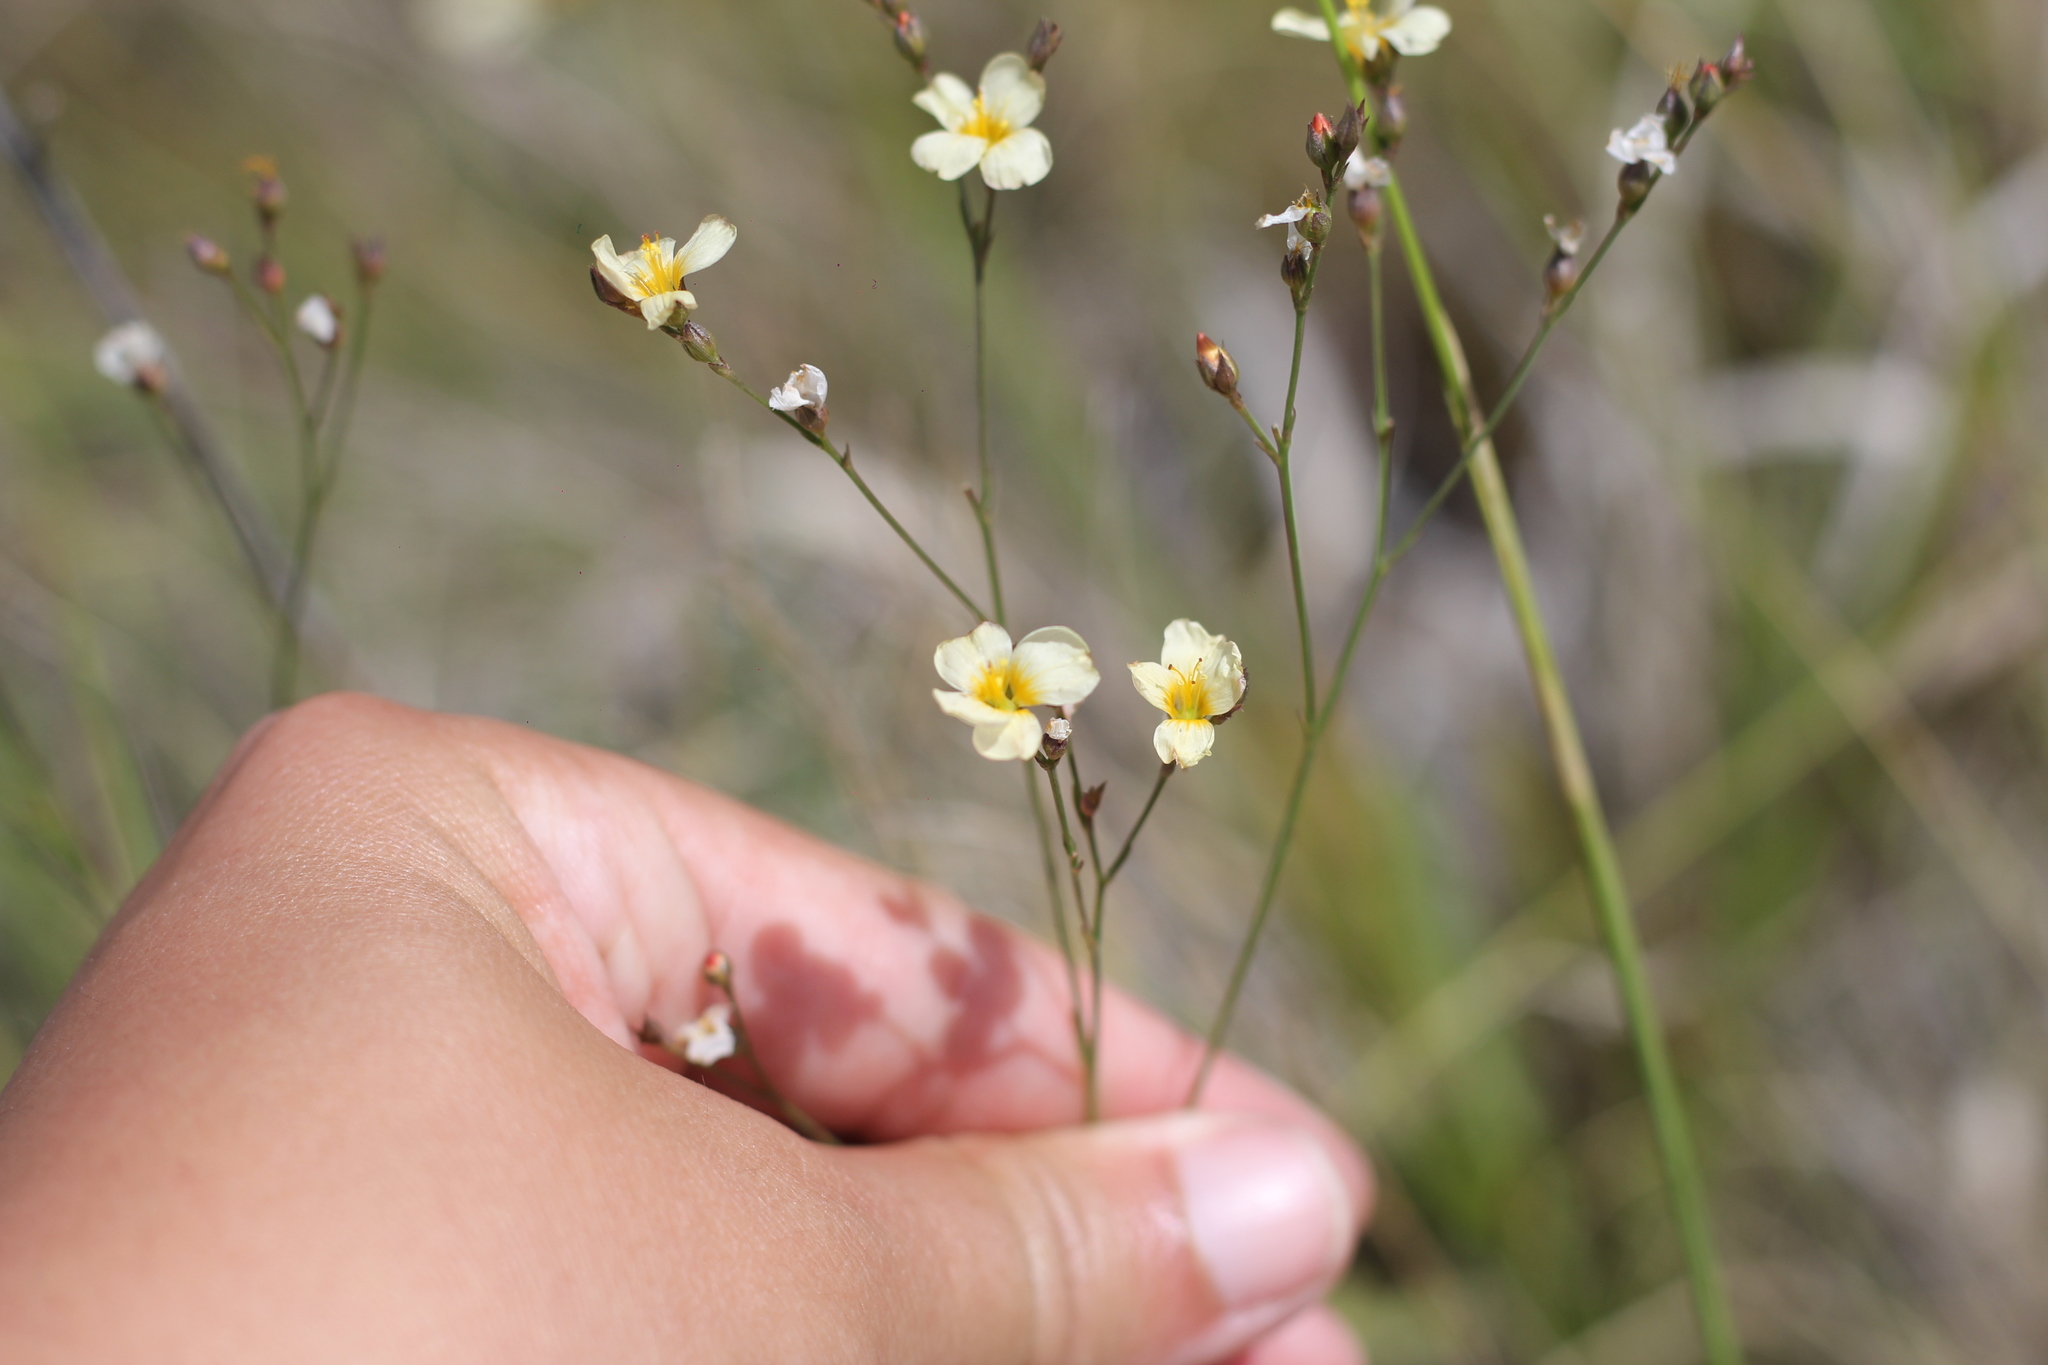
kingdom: Plantae
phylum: Tracheophyta
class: Magnoliopsida
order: Malpighiales
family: Linaceae
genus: Linum
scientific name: Linum burkartii
